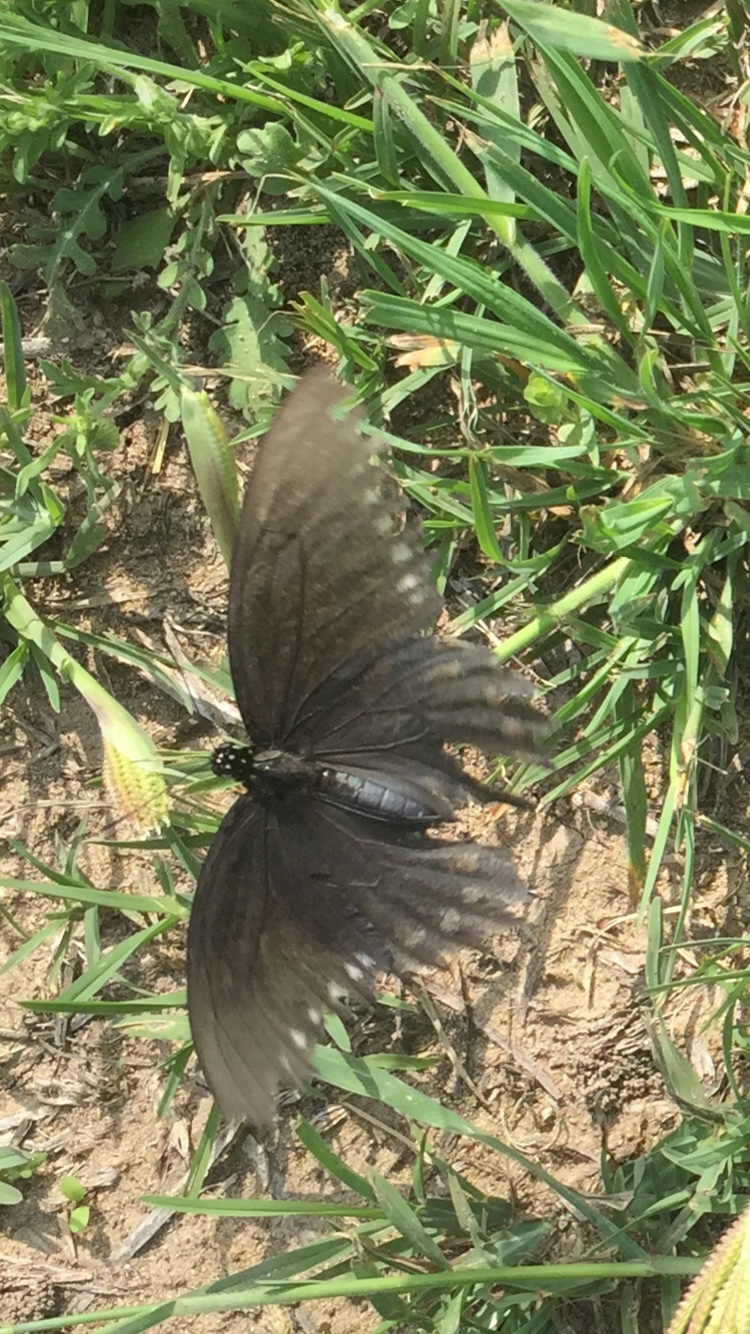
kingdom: Animalia
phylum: Arthropoda
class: Insecta
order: Lepidoptera
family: Papilionidae
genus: Battus
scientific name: Battus philenor
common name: Pipevine swallowtail
